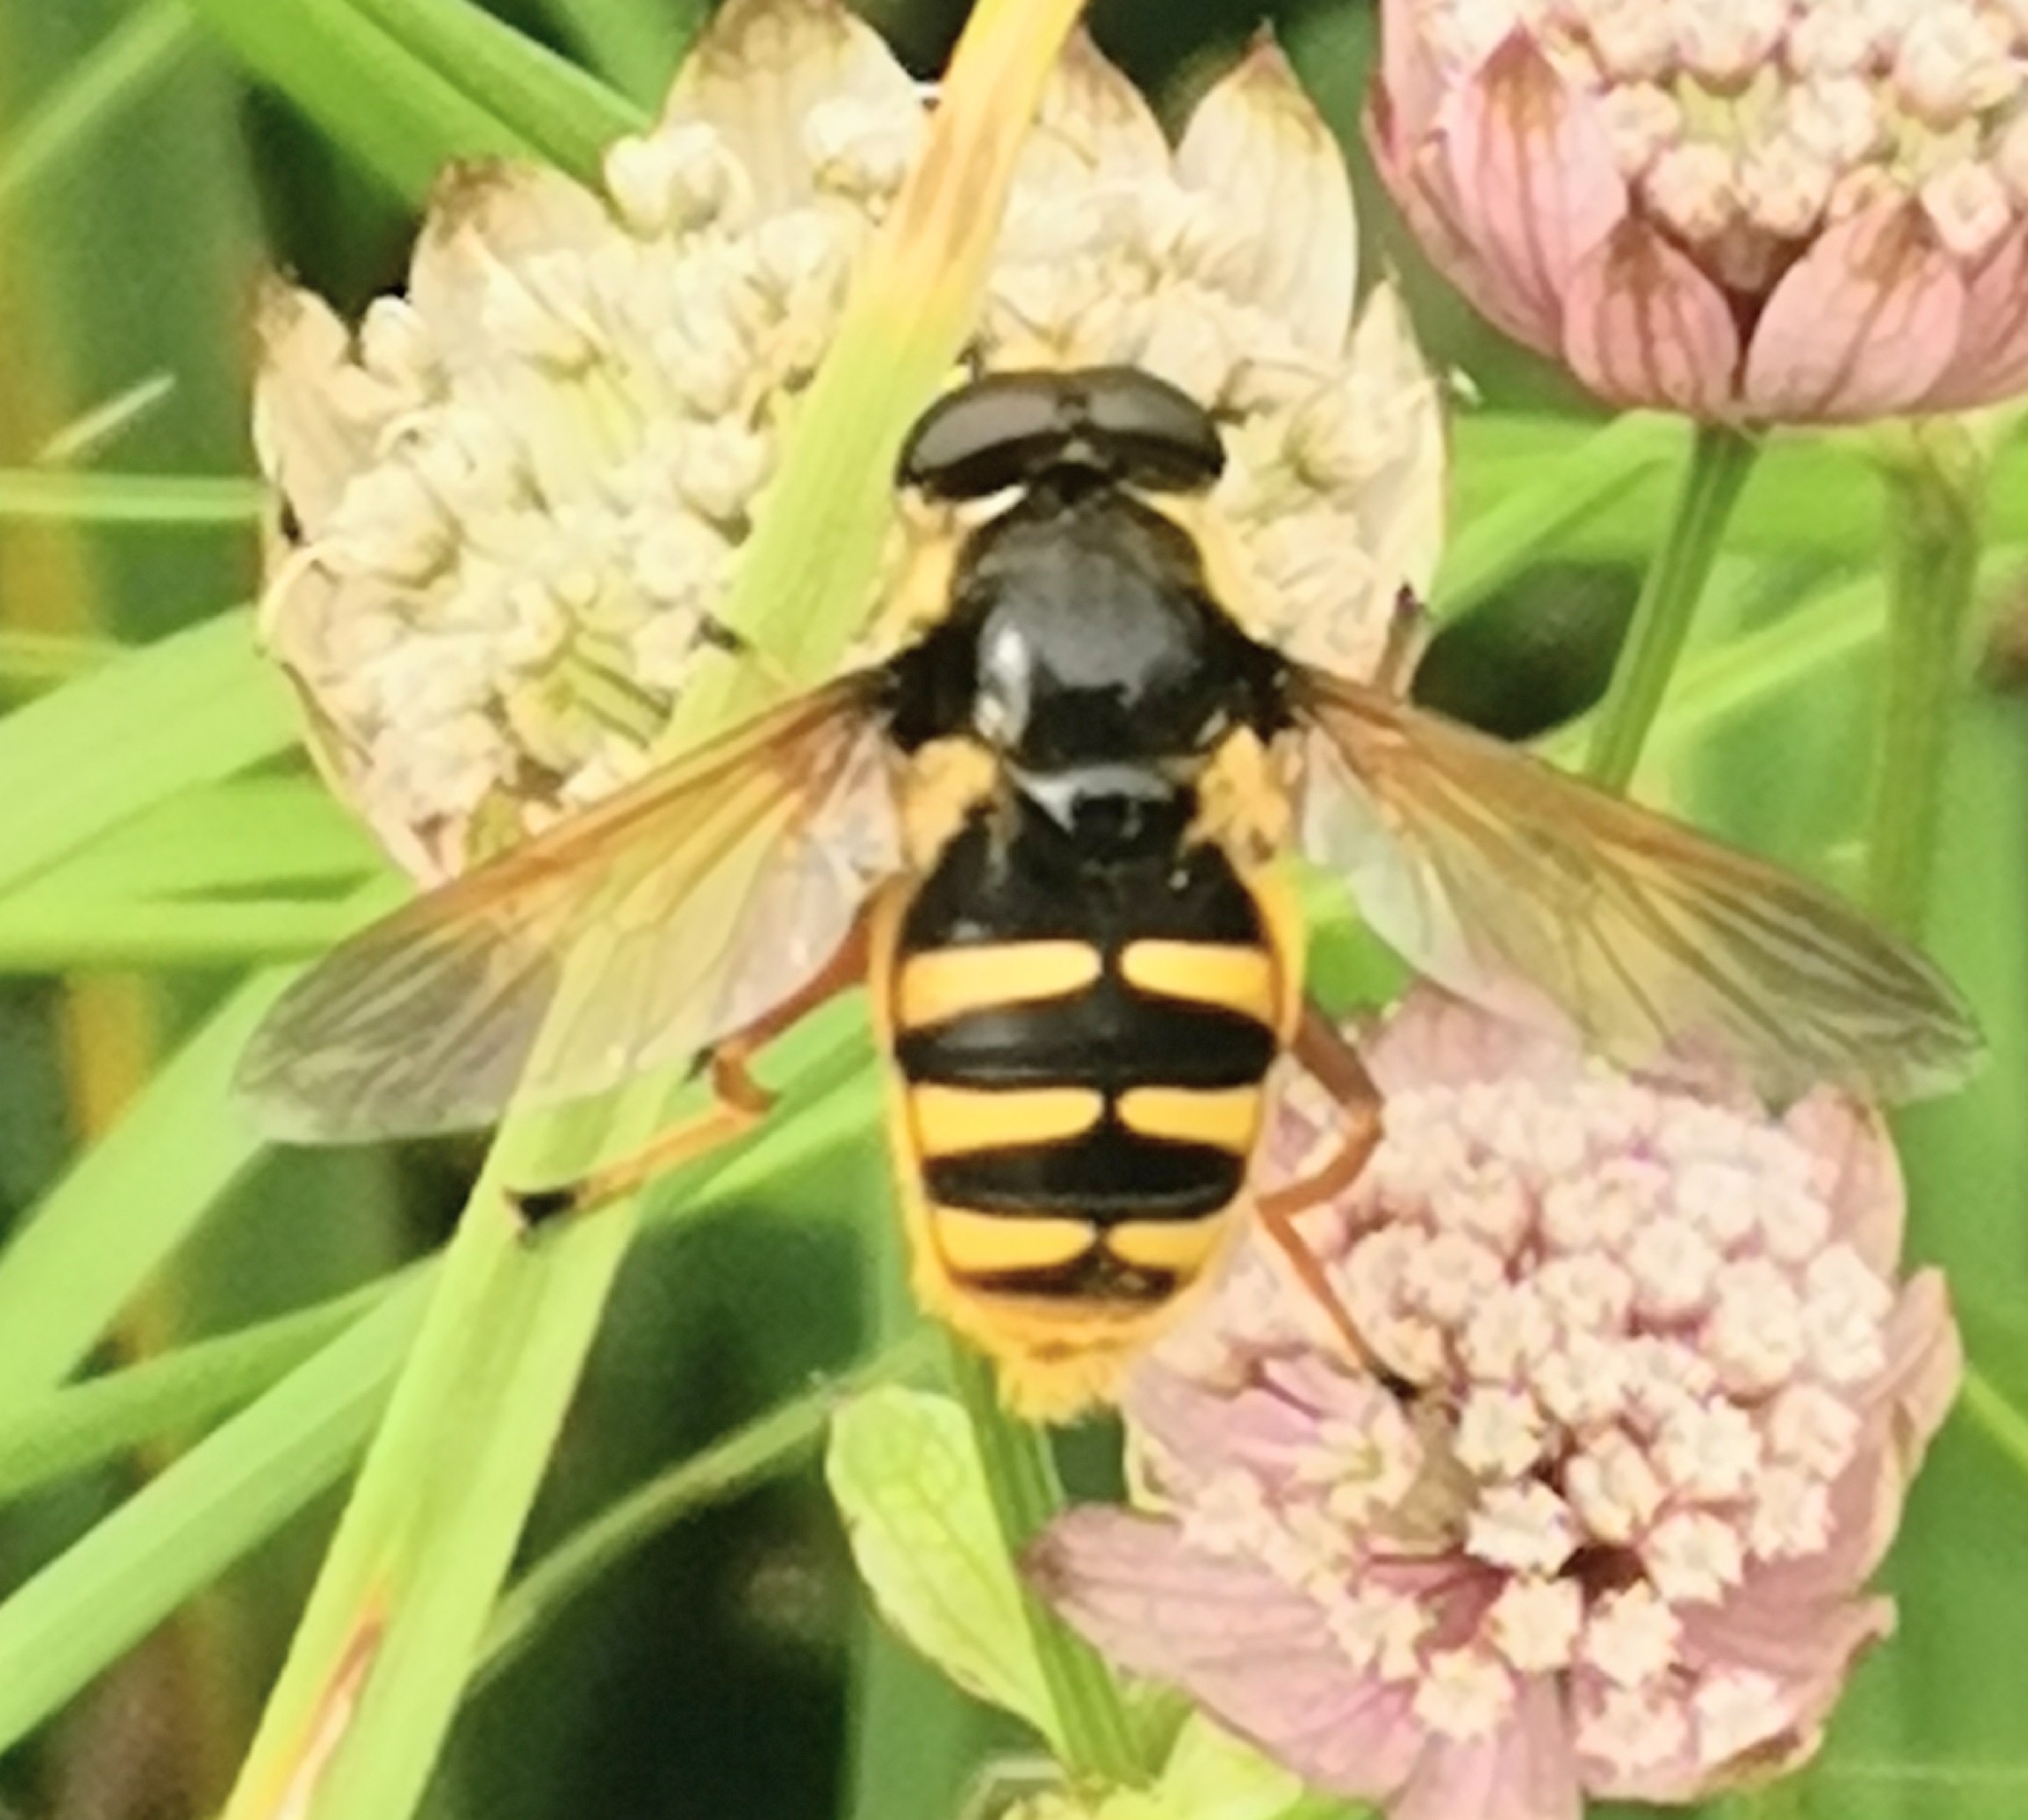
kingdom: Animalia
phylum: Arthropoda
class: Insecta
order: Diptera
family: Syrphidae
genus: Sericomyia
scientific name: Sericomyia silentis
